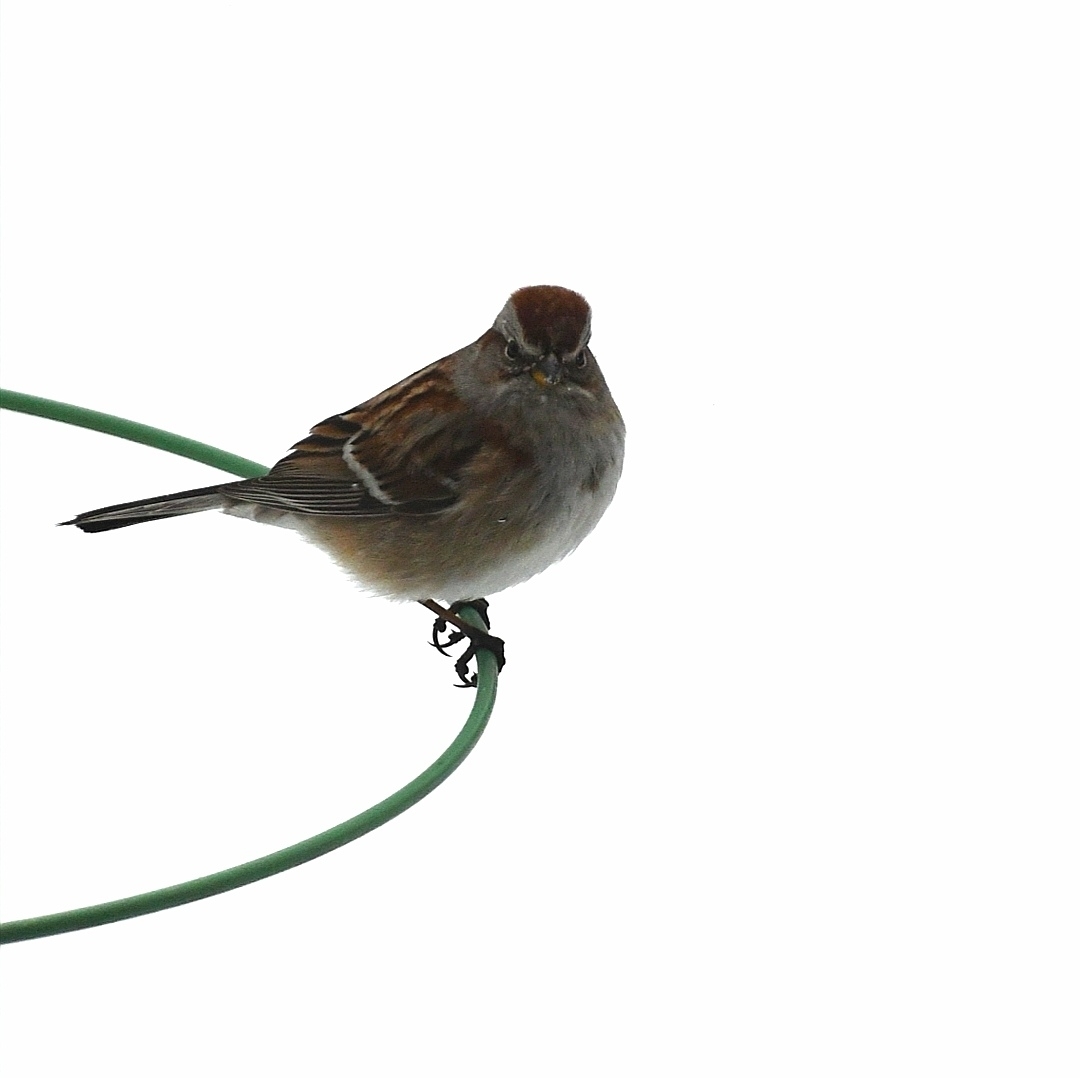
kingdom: Animalia
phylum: Chordata
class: Aves
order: Passeriformes
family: Passerellidae
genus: Spizelloides
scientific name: Spizelloides arborea
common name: American tree sparrow
